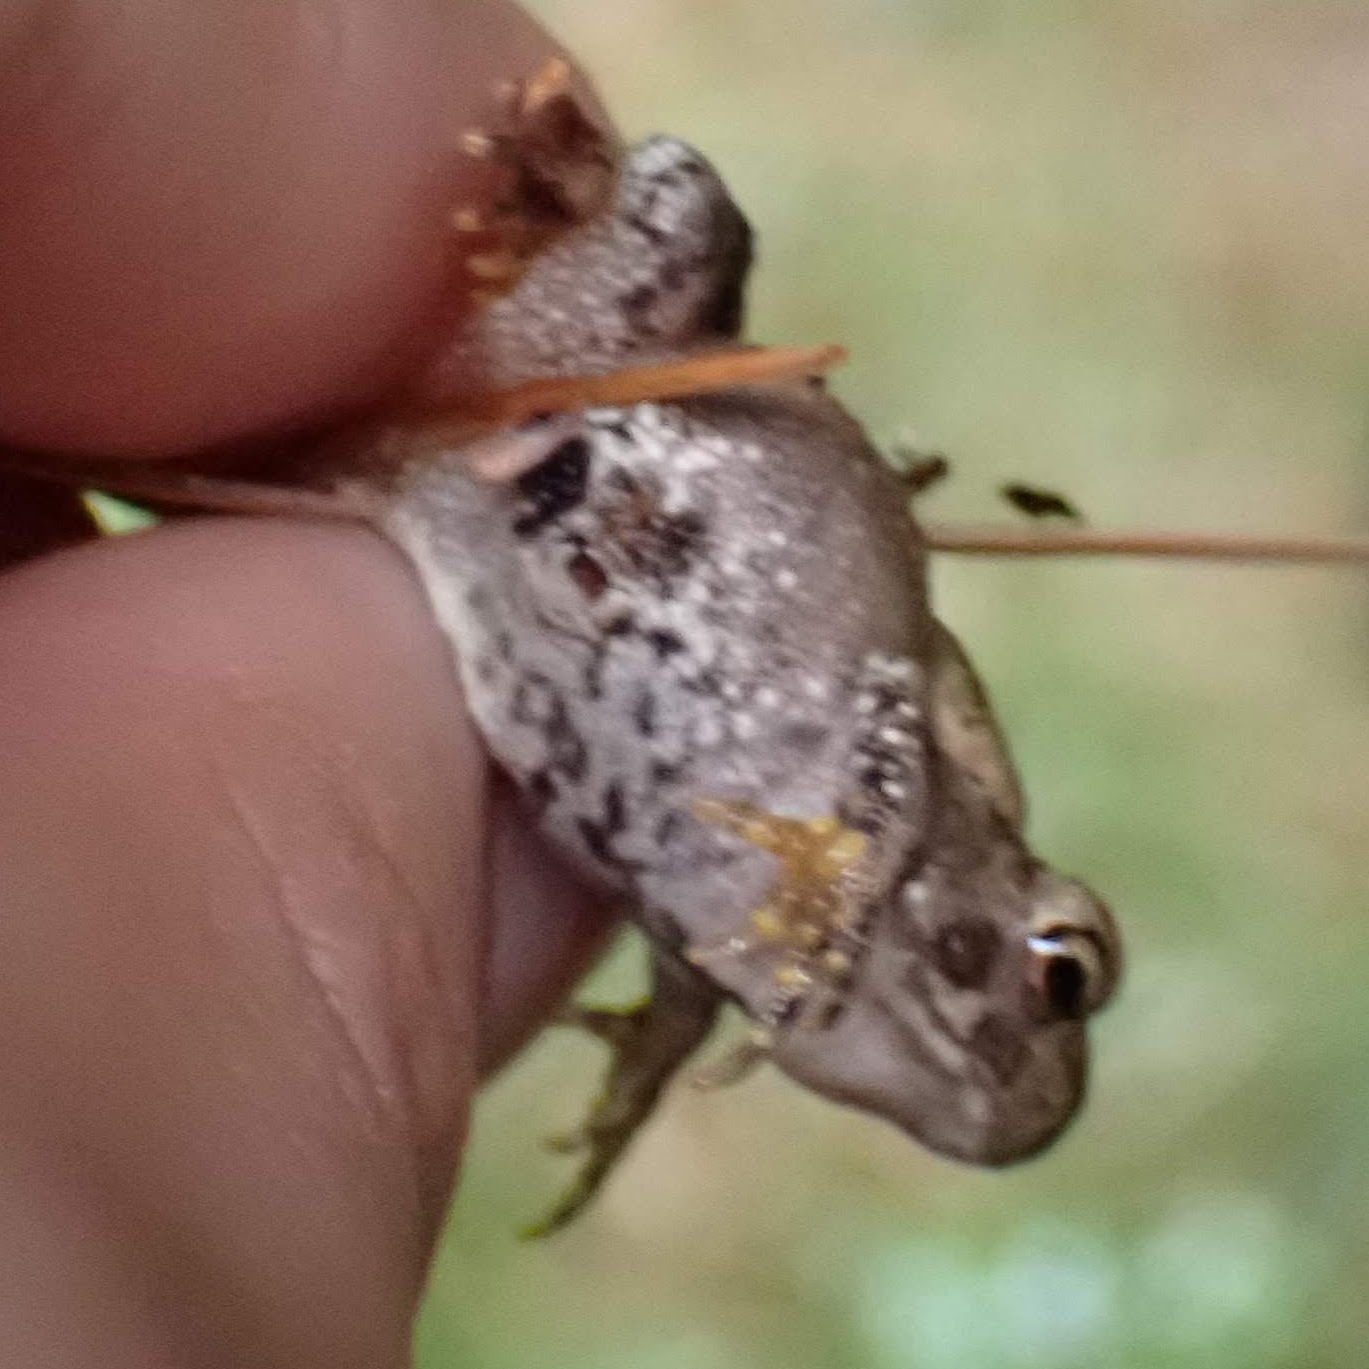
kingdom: Animalia
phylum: Chordata
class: Amphibia
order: Anura
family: Bufonidae
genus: Anaxyrus
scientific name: Anaxyrus americanus
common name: American toad
